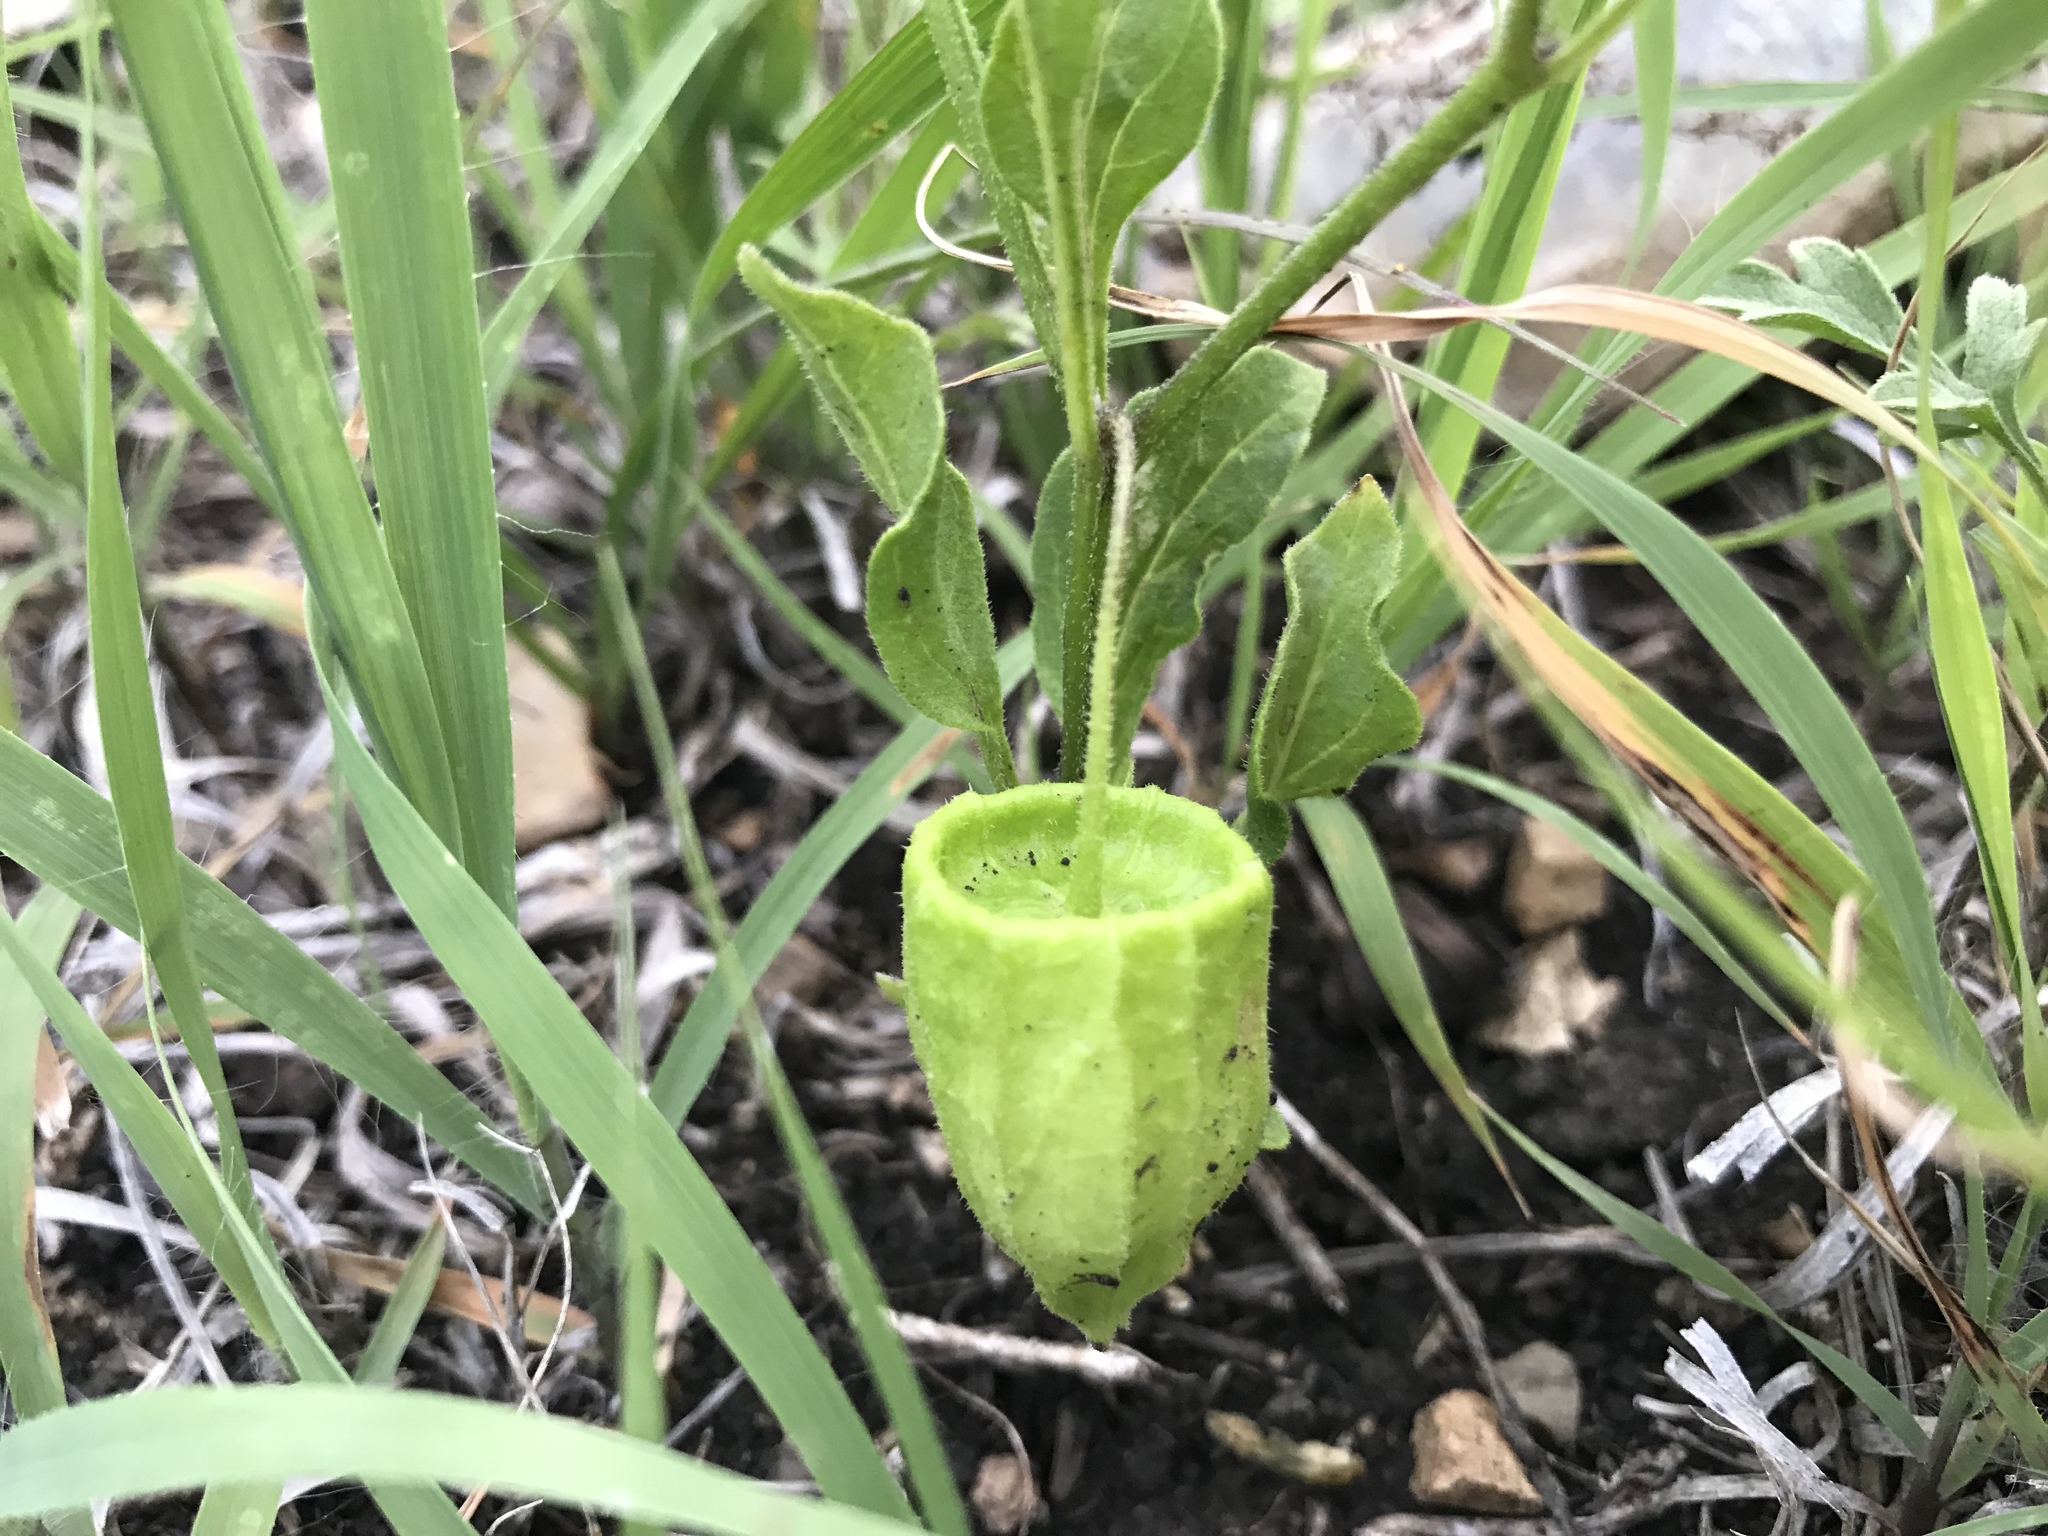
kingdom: Plantae
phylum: Tracheophyta
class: Magnoliopsida
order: Solanales
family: Solanaceae
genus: Physalis
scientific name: Physalis virginiana
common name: Virginia ground-cherry
